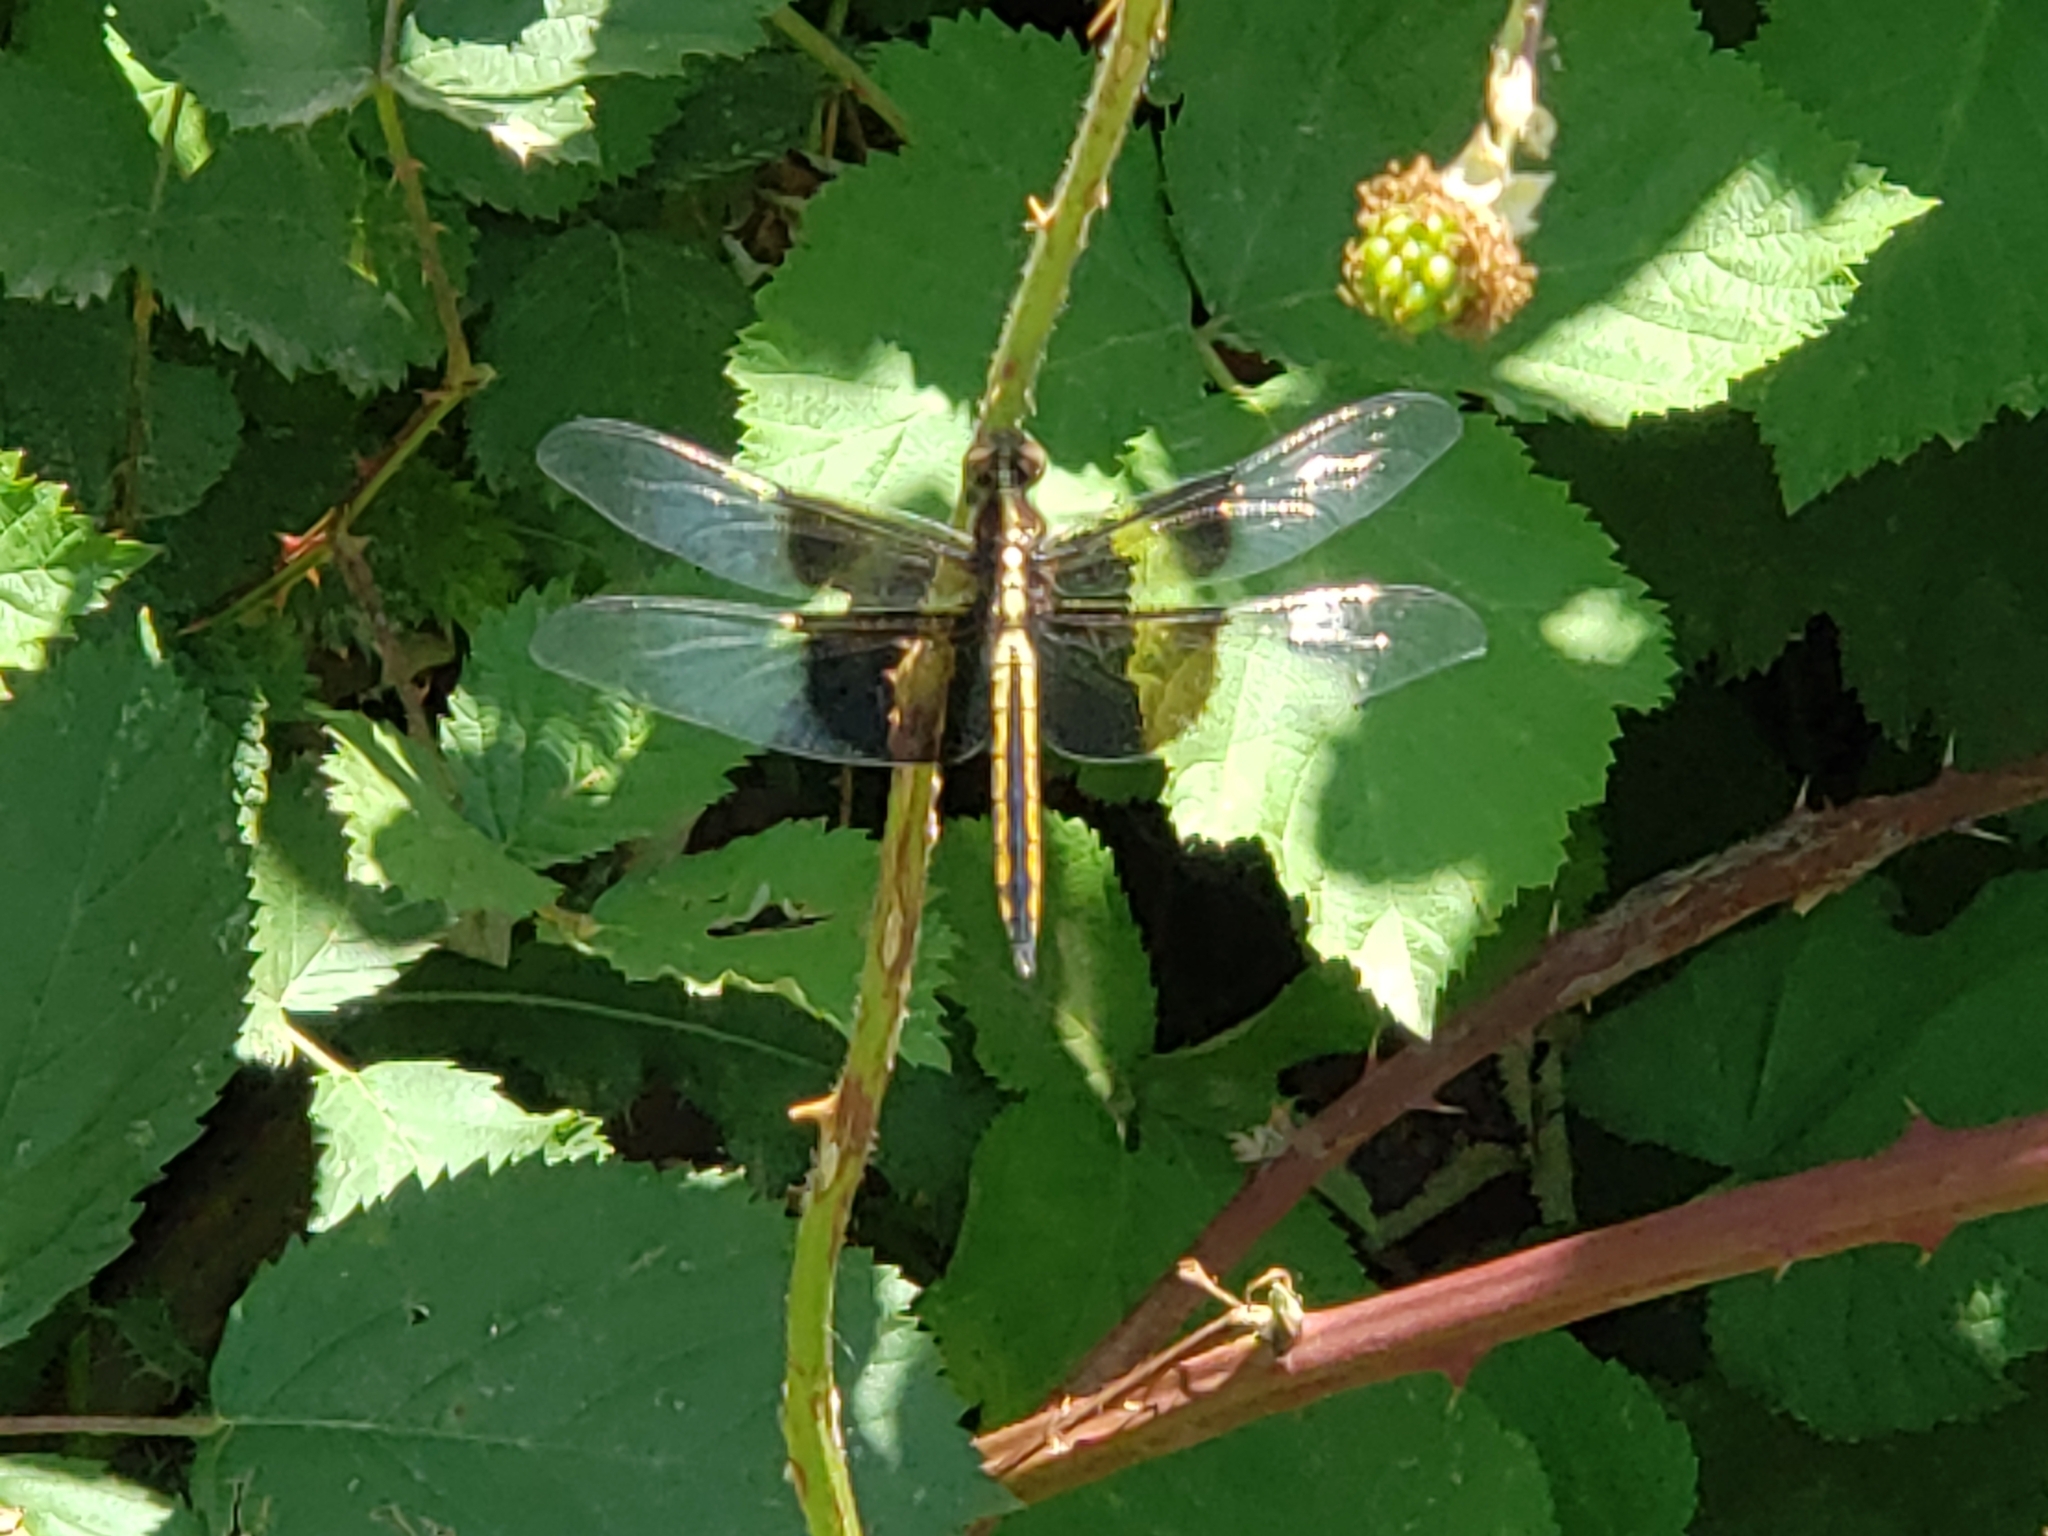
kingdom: Animalia
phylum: Arthropoda
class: Insecta
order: Odonata
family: Libellulidae
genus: Libellula
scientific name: Libellula luctuosa
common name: Widow skimmer
